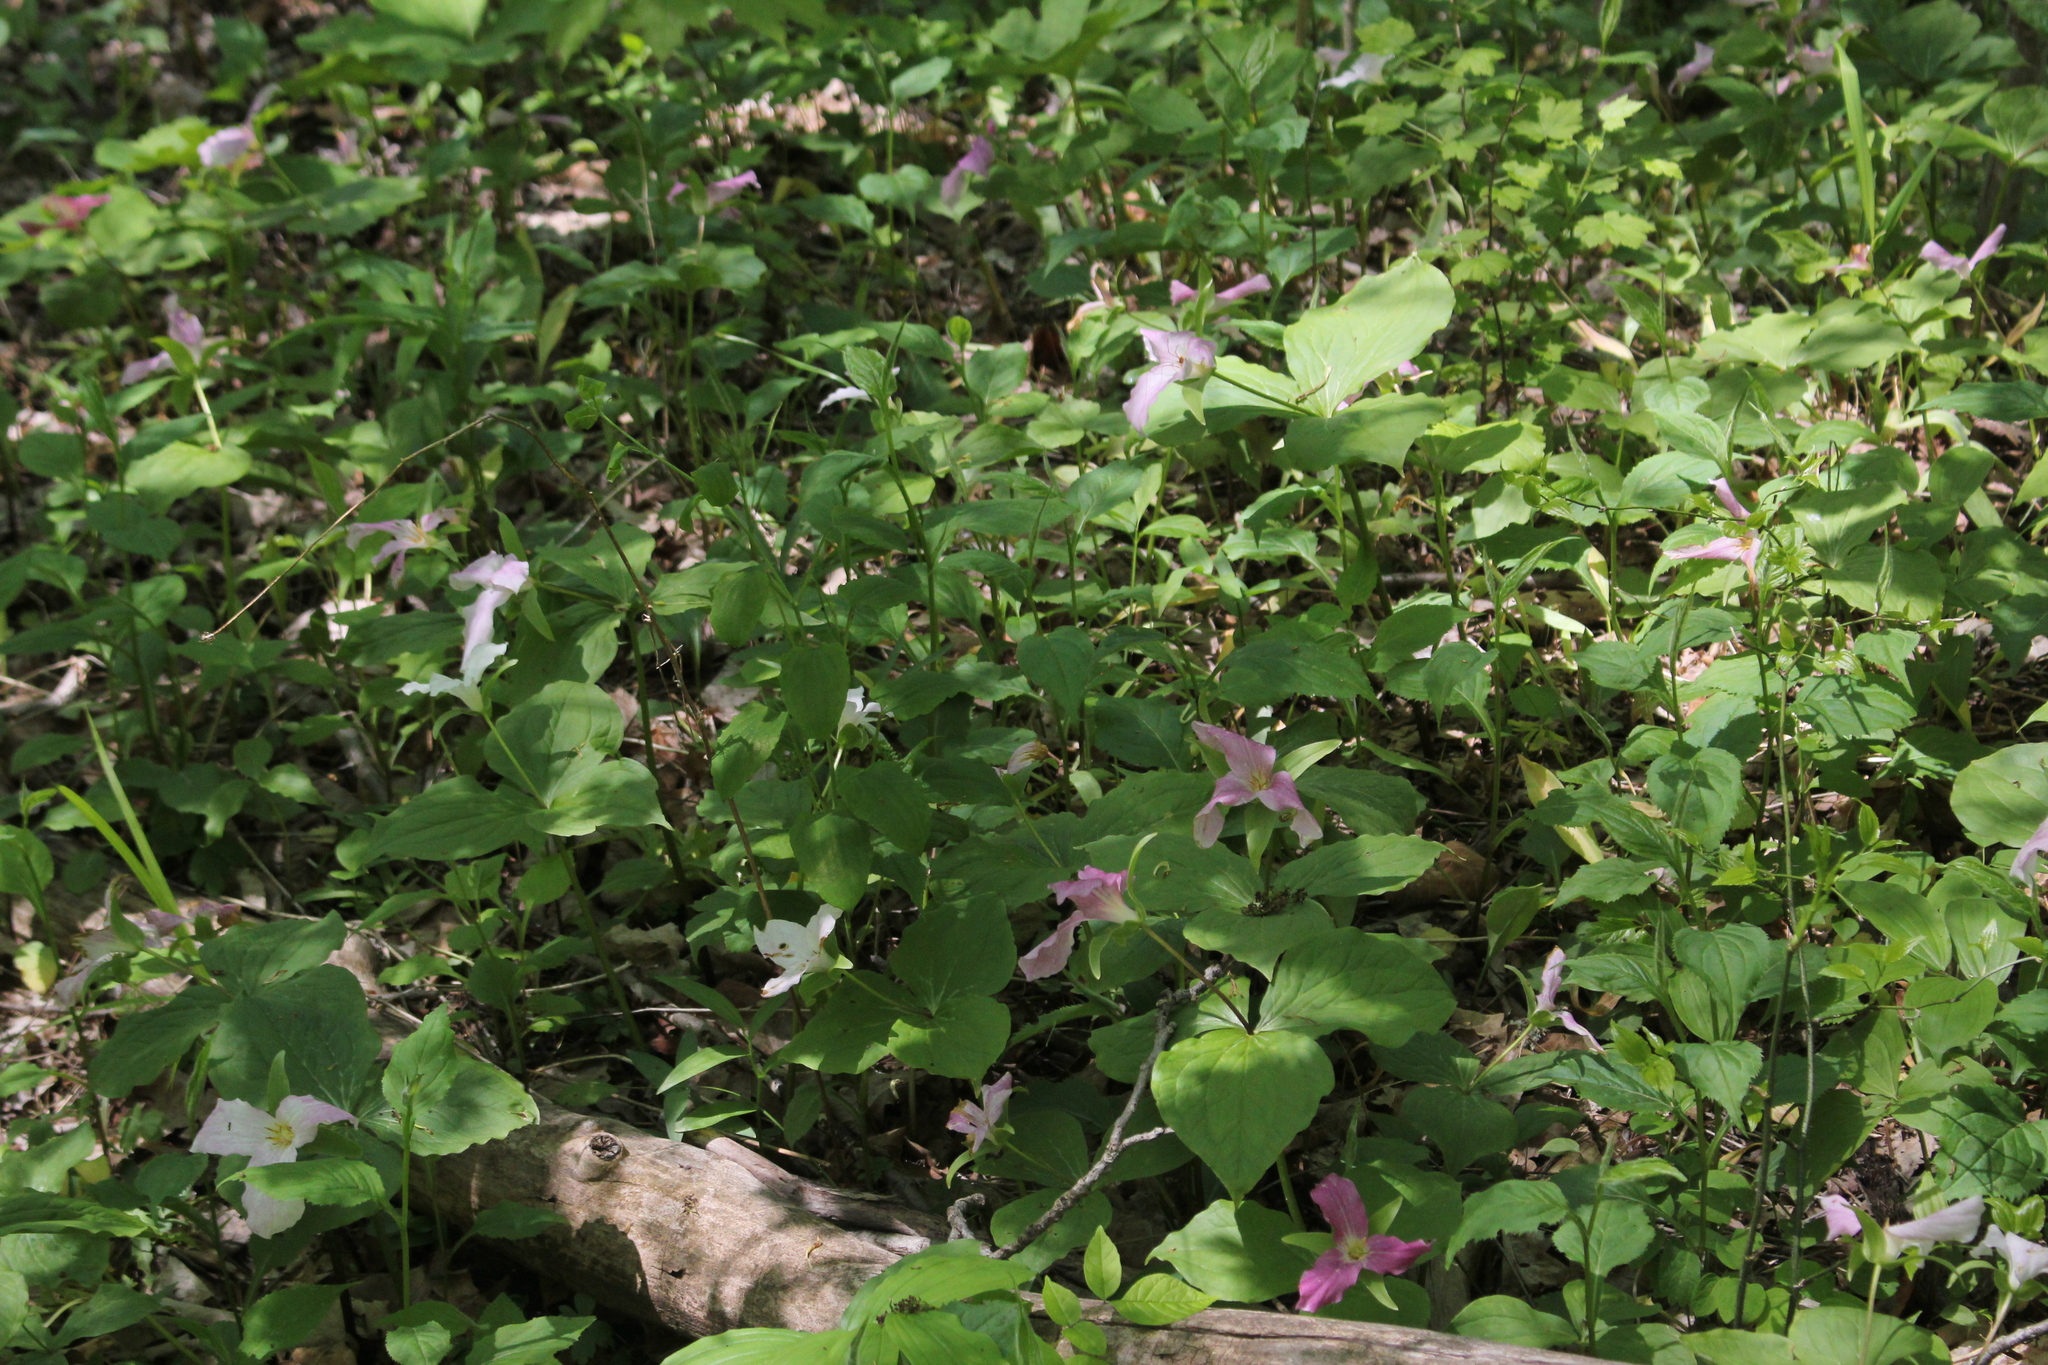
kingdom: Plantae
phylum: Tracheophyta
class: Liliopsida
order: Liliales
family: Melanthiaceae
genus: Trillium
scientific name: Trillium grandiflorum
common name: Great white trillium
